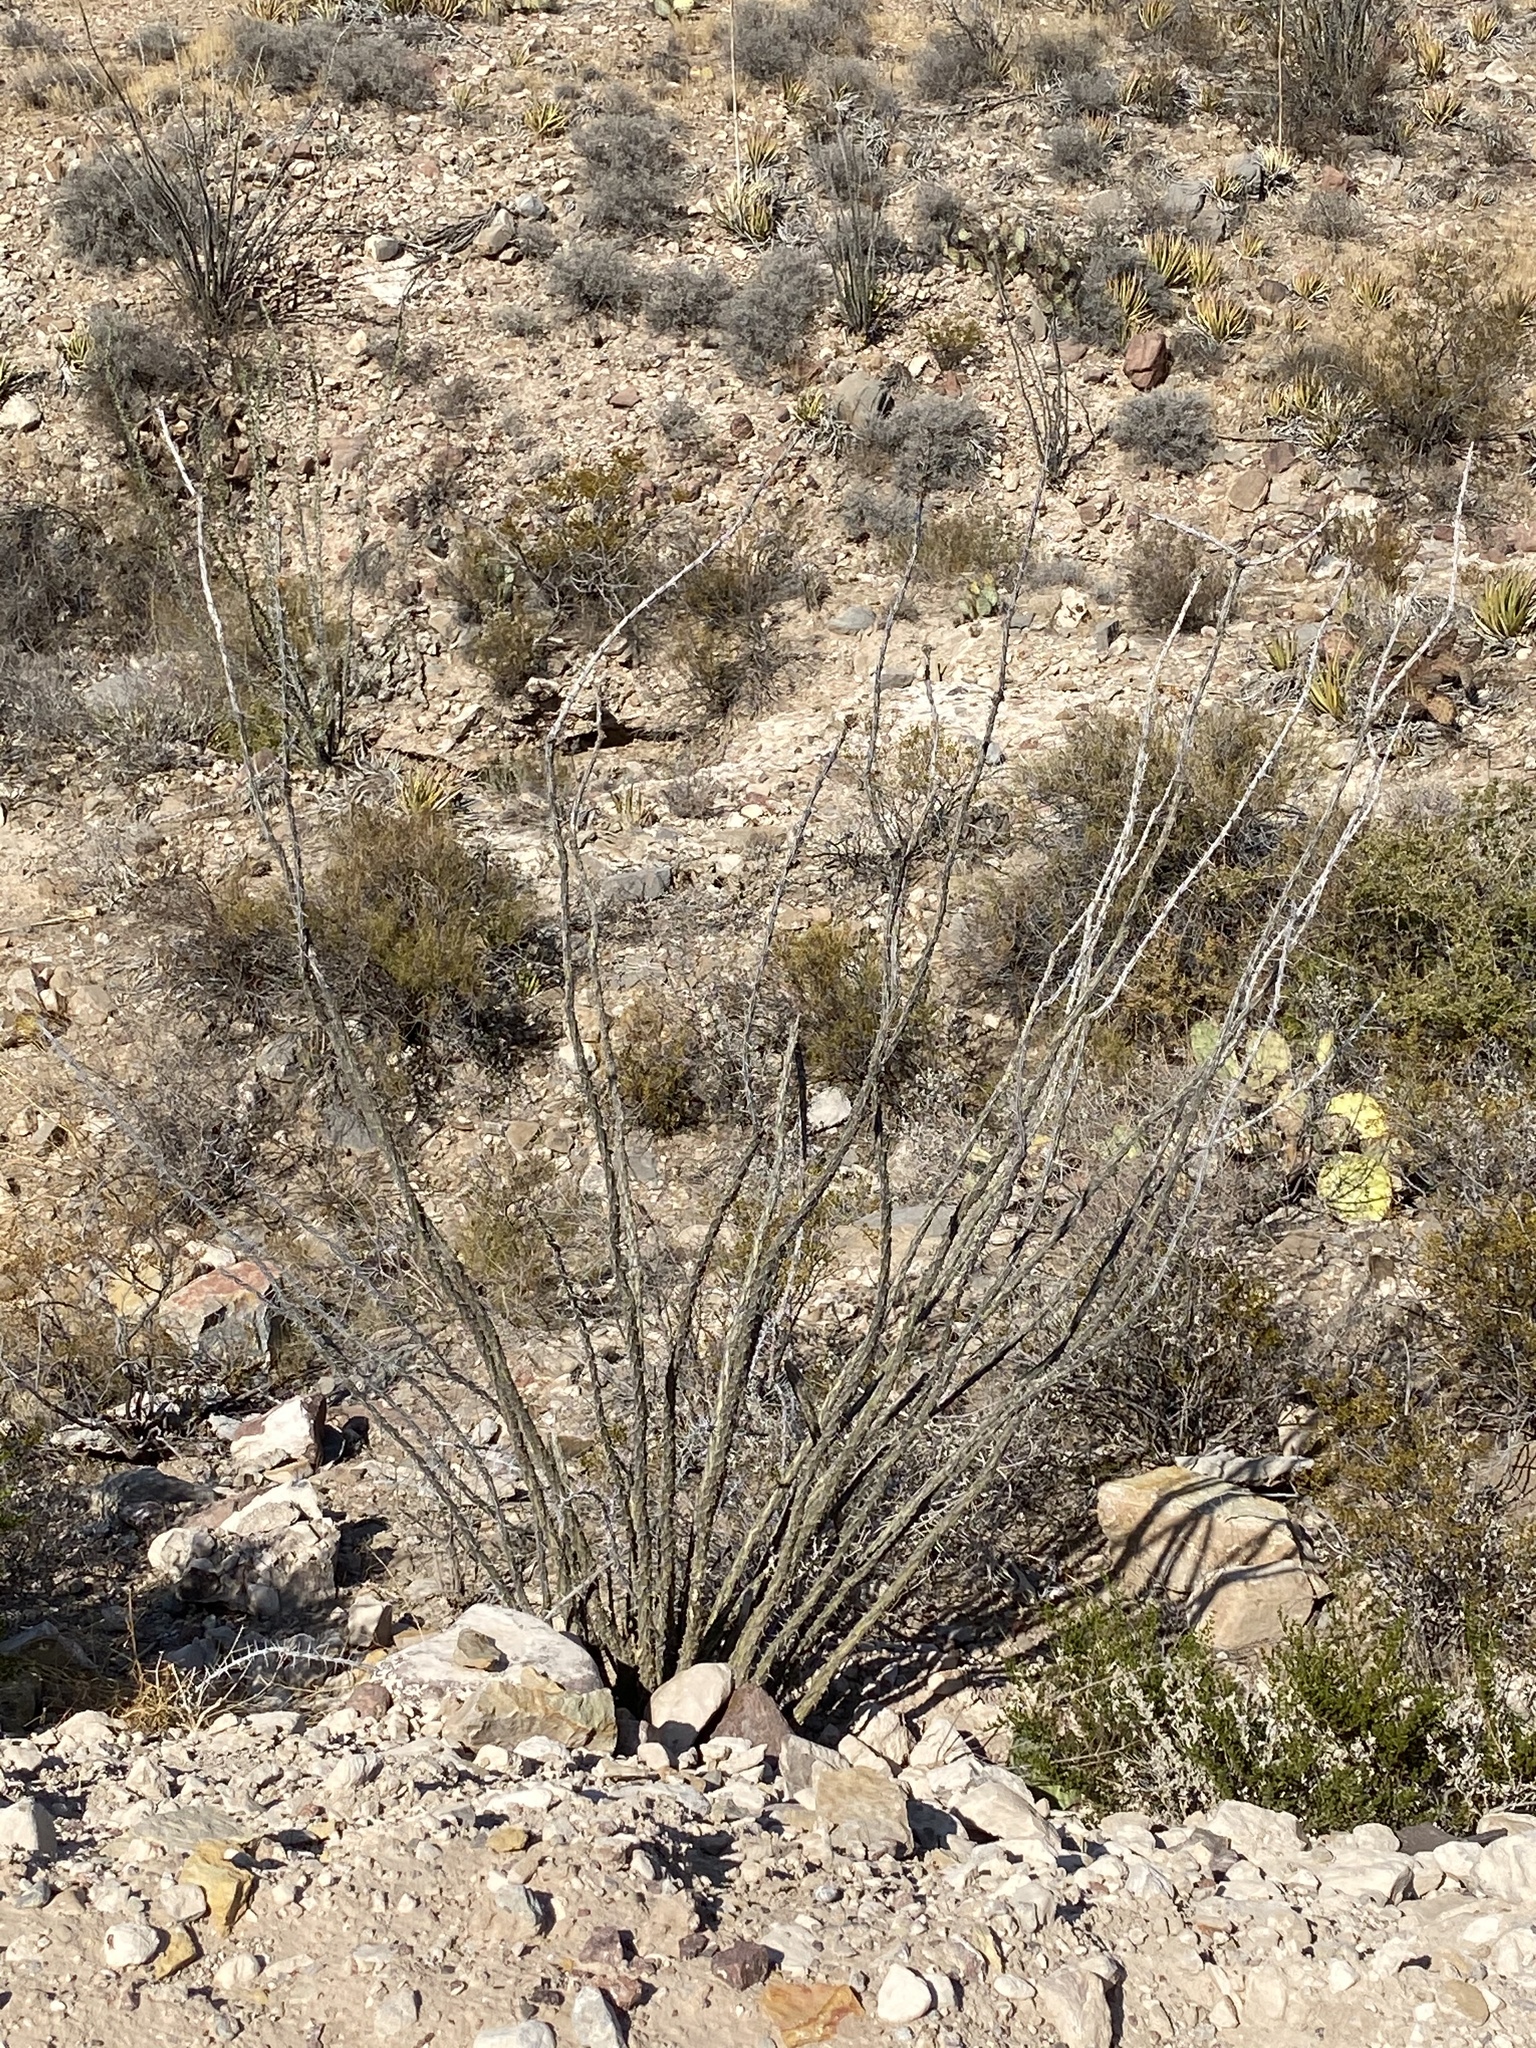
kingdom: Plantae
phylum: Tracheophyta
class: Magnoliopsida
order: Ericales
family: Fouquieriaceae
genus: Fouquieria
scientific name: Fouquieria splendens
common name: Vine-cactus
